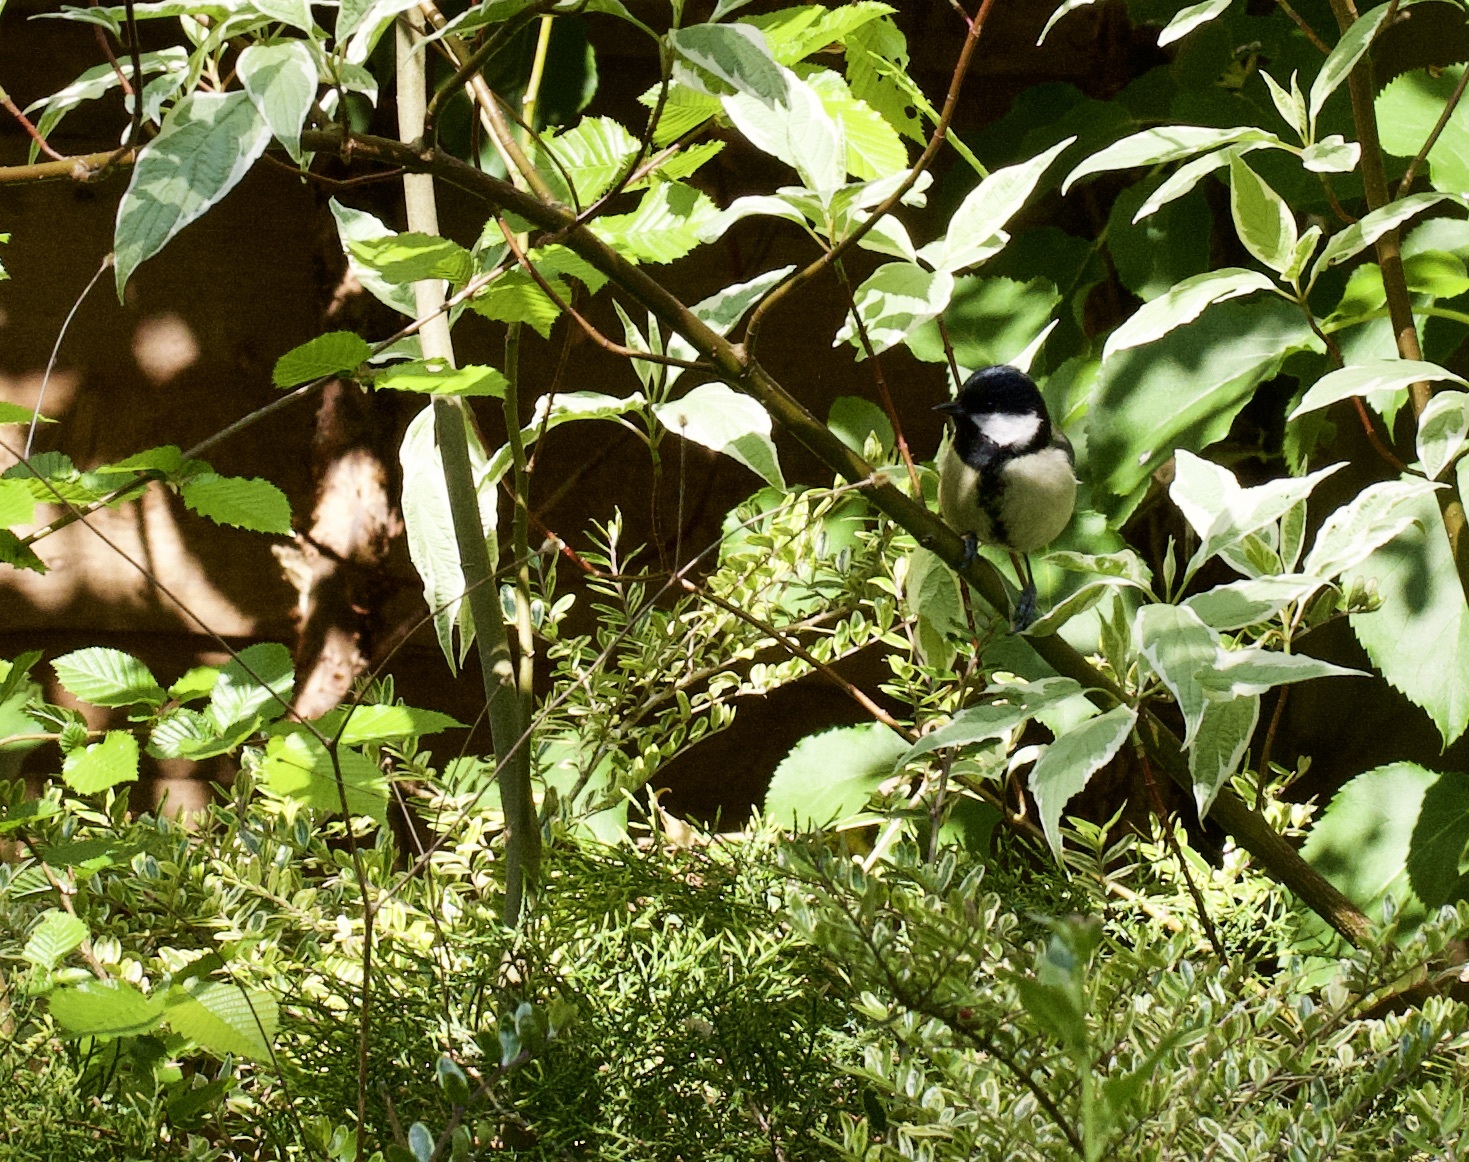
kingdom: Animalia
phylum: Chordata
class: Aves
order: Passeriformes
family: Paridae
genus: Parus
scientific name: Parus major
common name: Great tit
